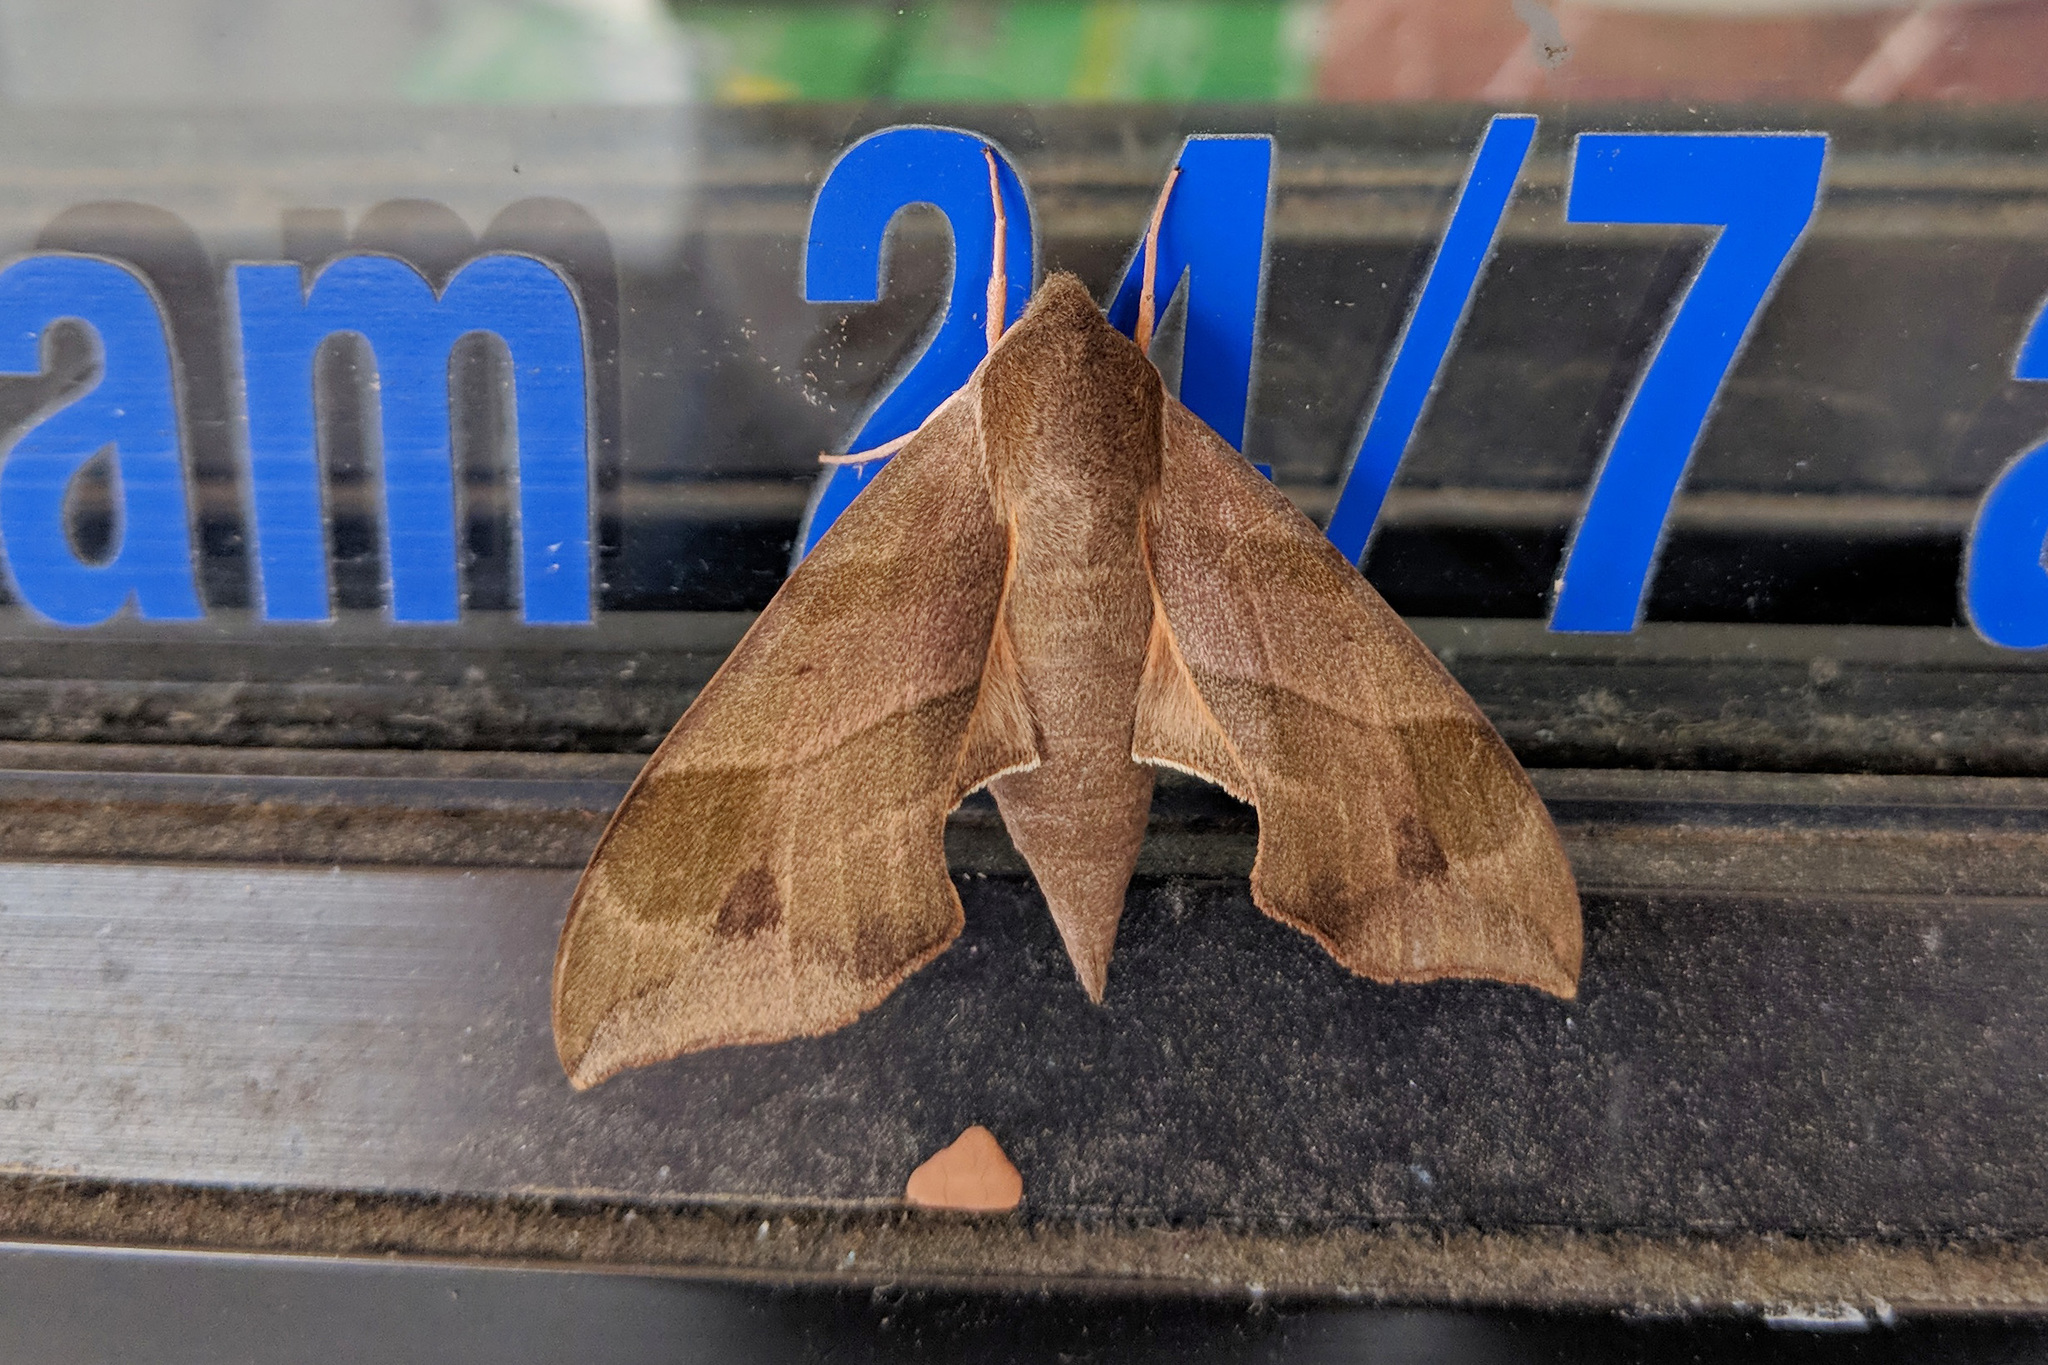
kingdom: Animalia
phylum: Arthropoda
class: Insecta
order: Lepidoptera
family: Sphingidae
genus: Darapsa
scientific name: Darapsa myron
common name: Hog sphinx
